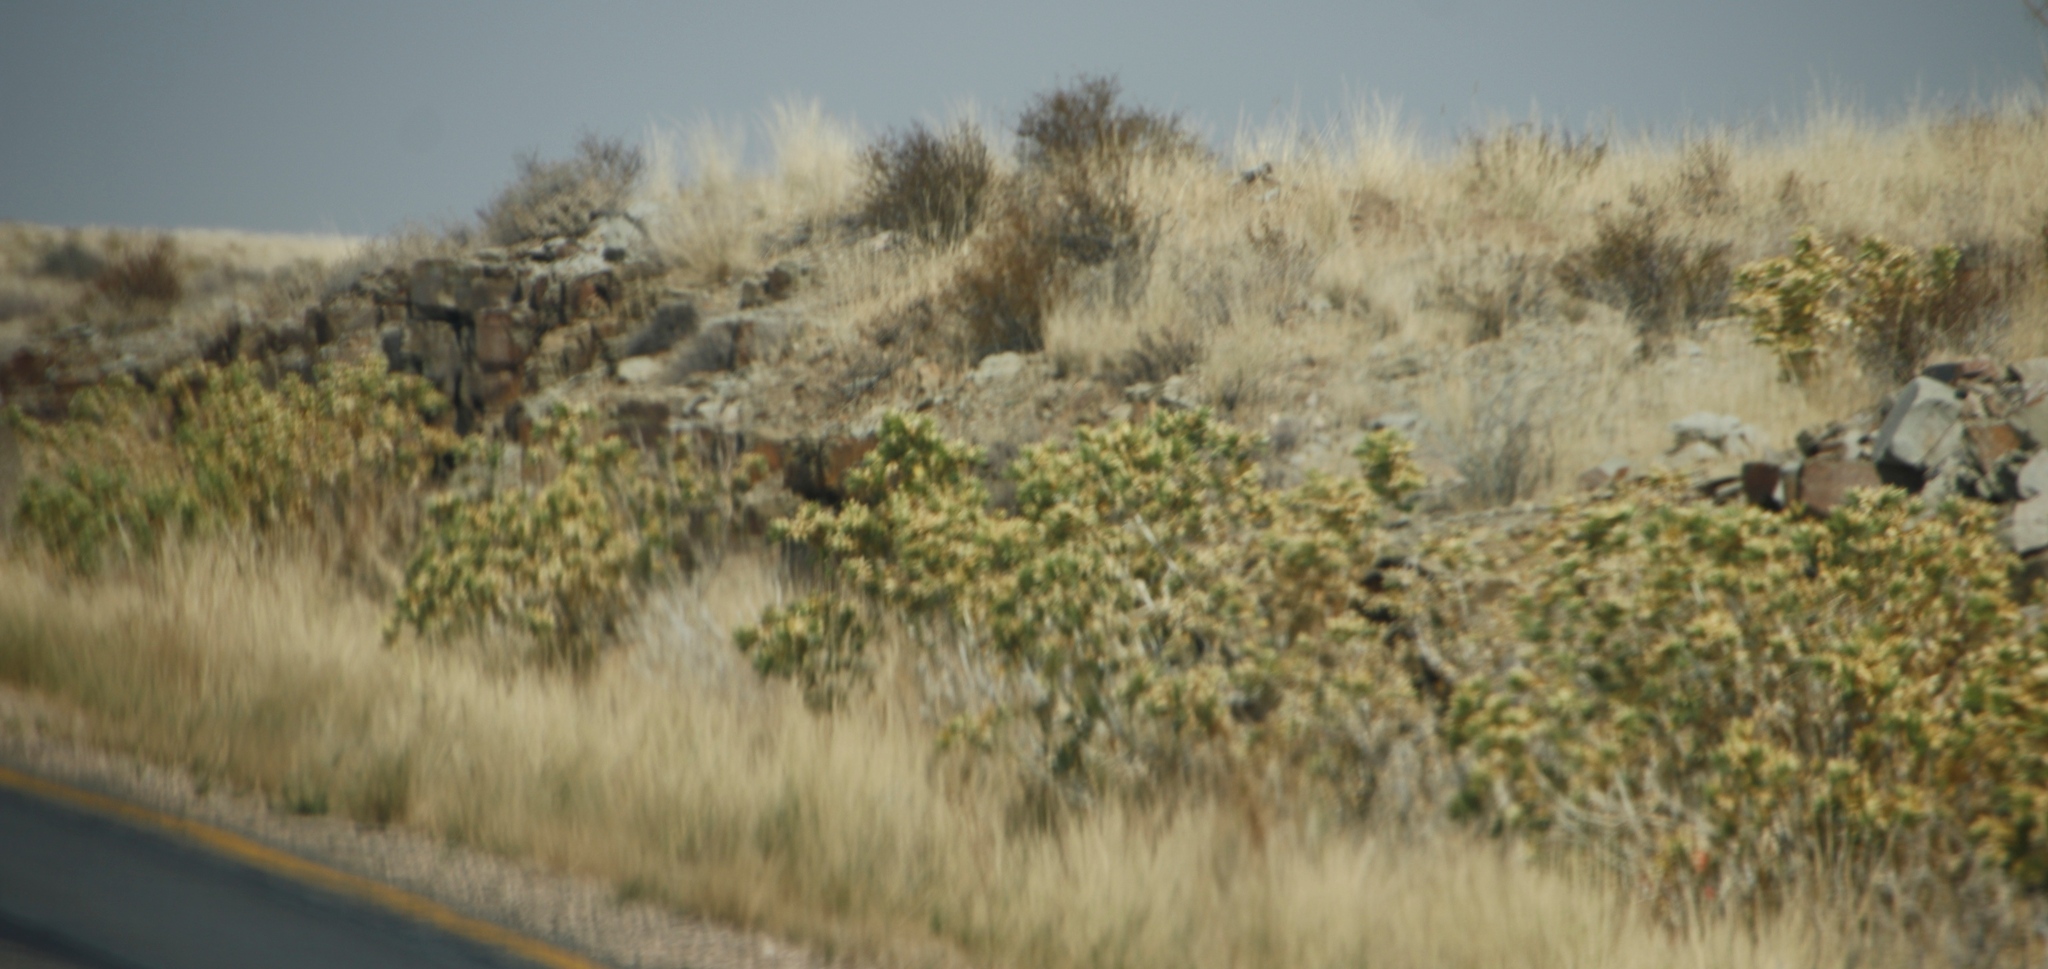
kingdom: Plantae
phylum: Tracheophyta
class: Magnoliopsida
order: Cornales
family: Loasaceae
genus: Kissenia
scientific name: Kissenia capensis
